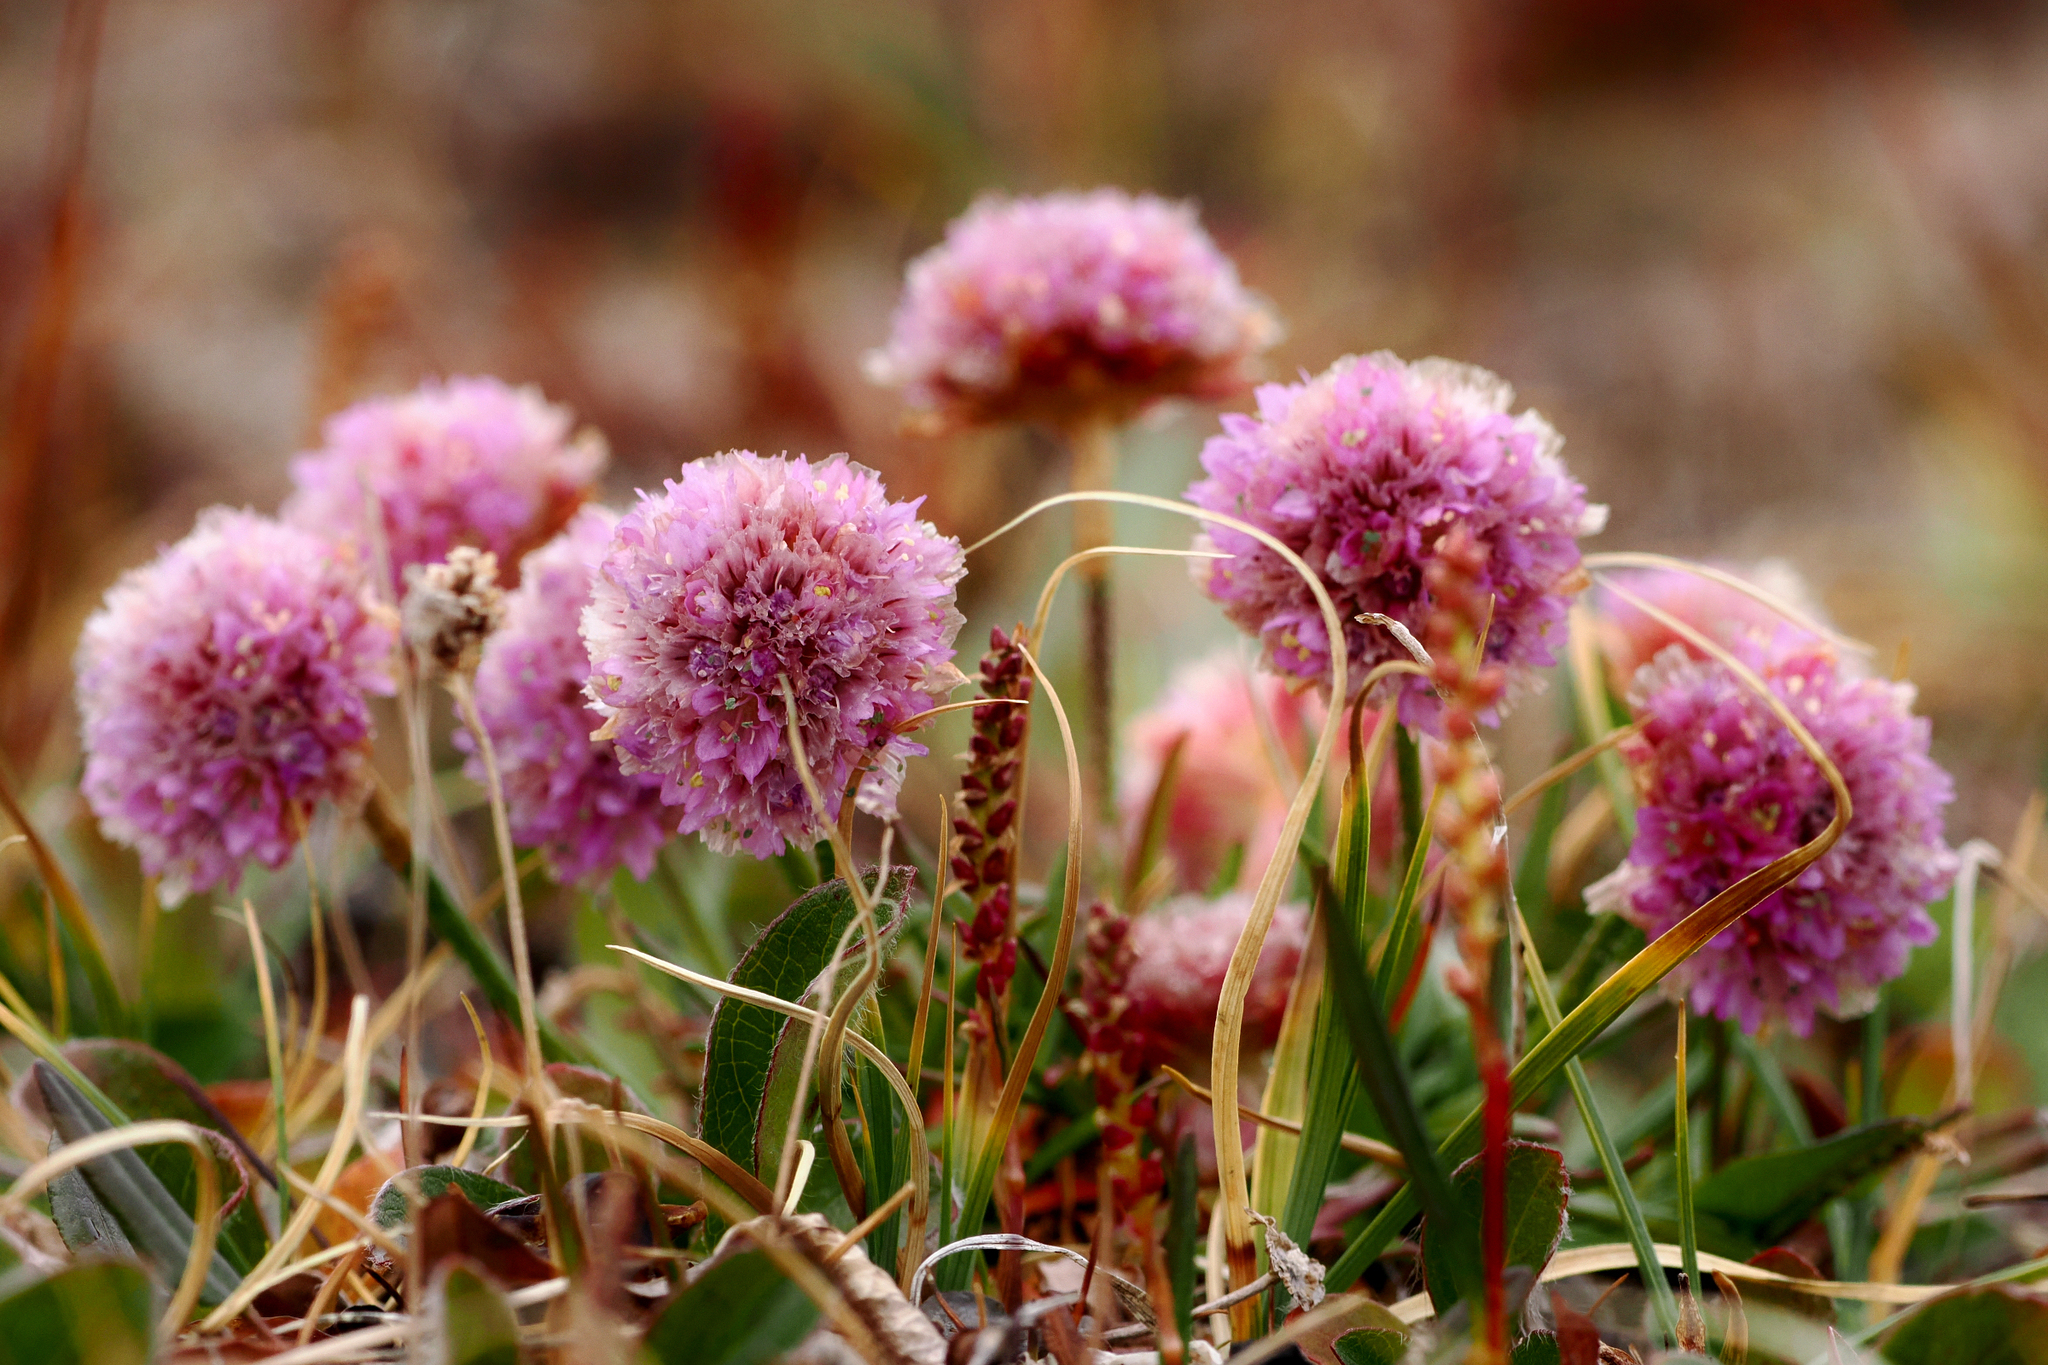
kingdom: Plantae
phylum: Tracheophyta
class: Magnoliopsida
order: Caryophyllales
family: Plumbaginaceae
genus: Armeria
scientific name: Armeria maritima
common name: Thrift
